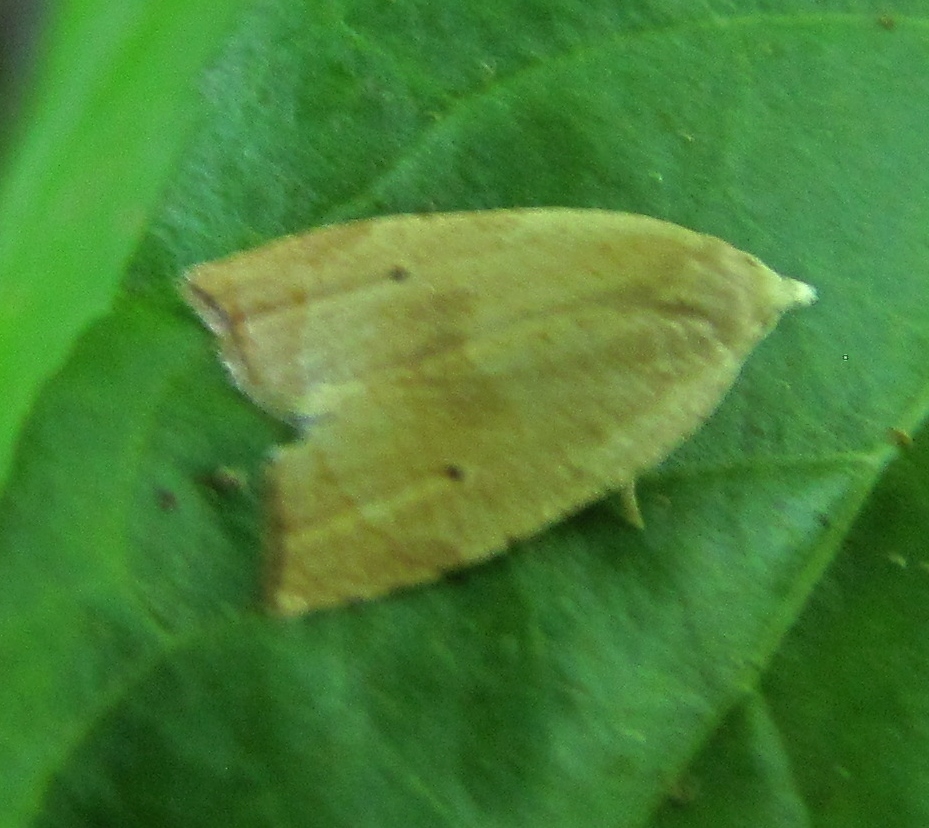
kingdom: Animalia
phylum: Arthropoda
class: Insecta
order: Lepidoptera
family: Tortricidae
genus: Coelostathma
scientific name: Coelostathma discopunctana
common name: Batman moth
